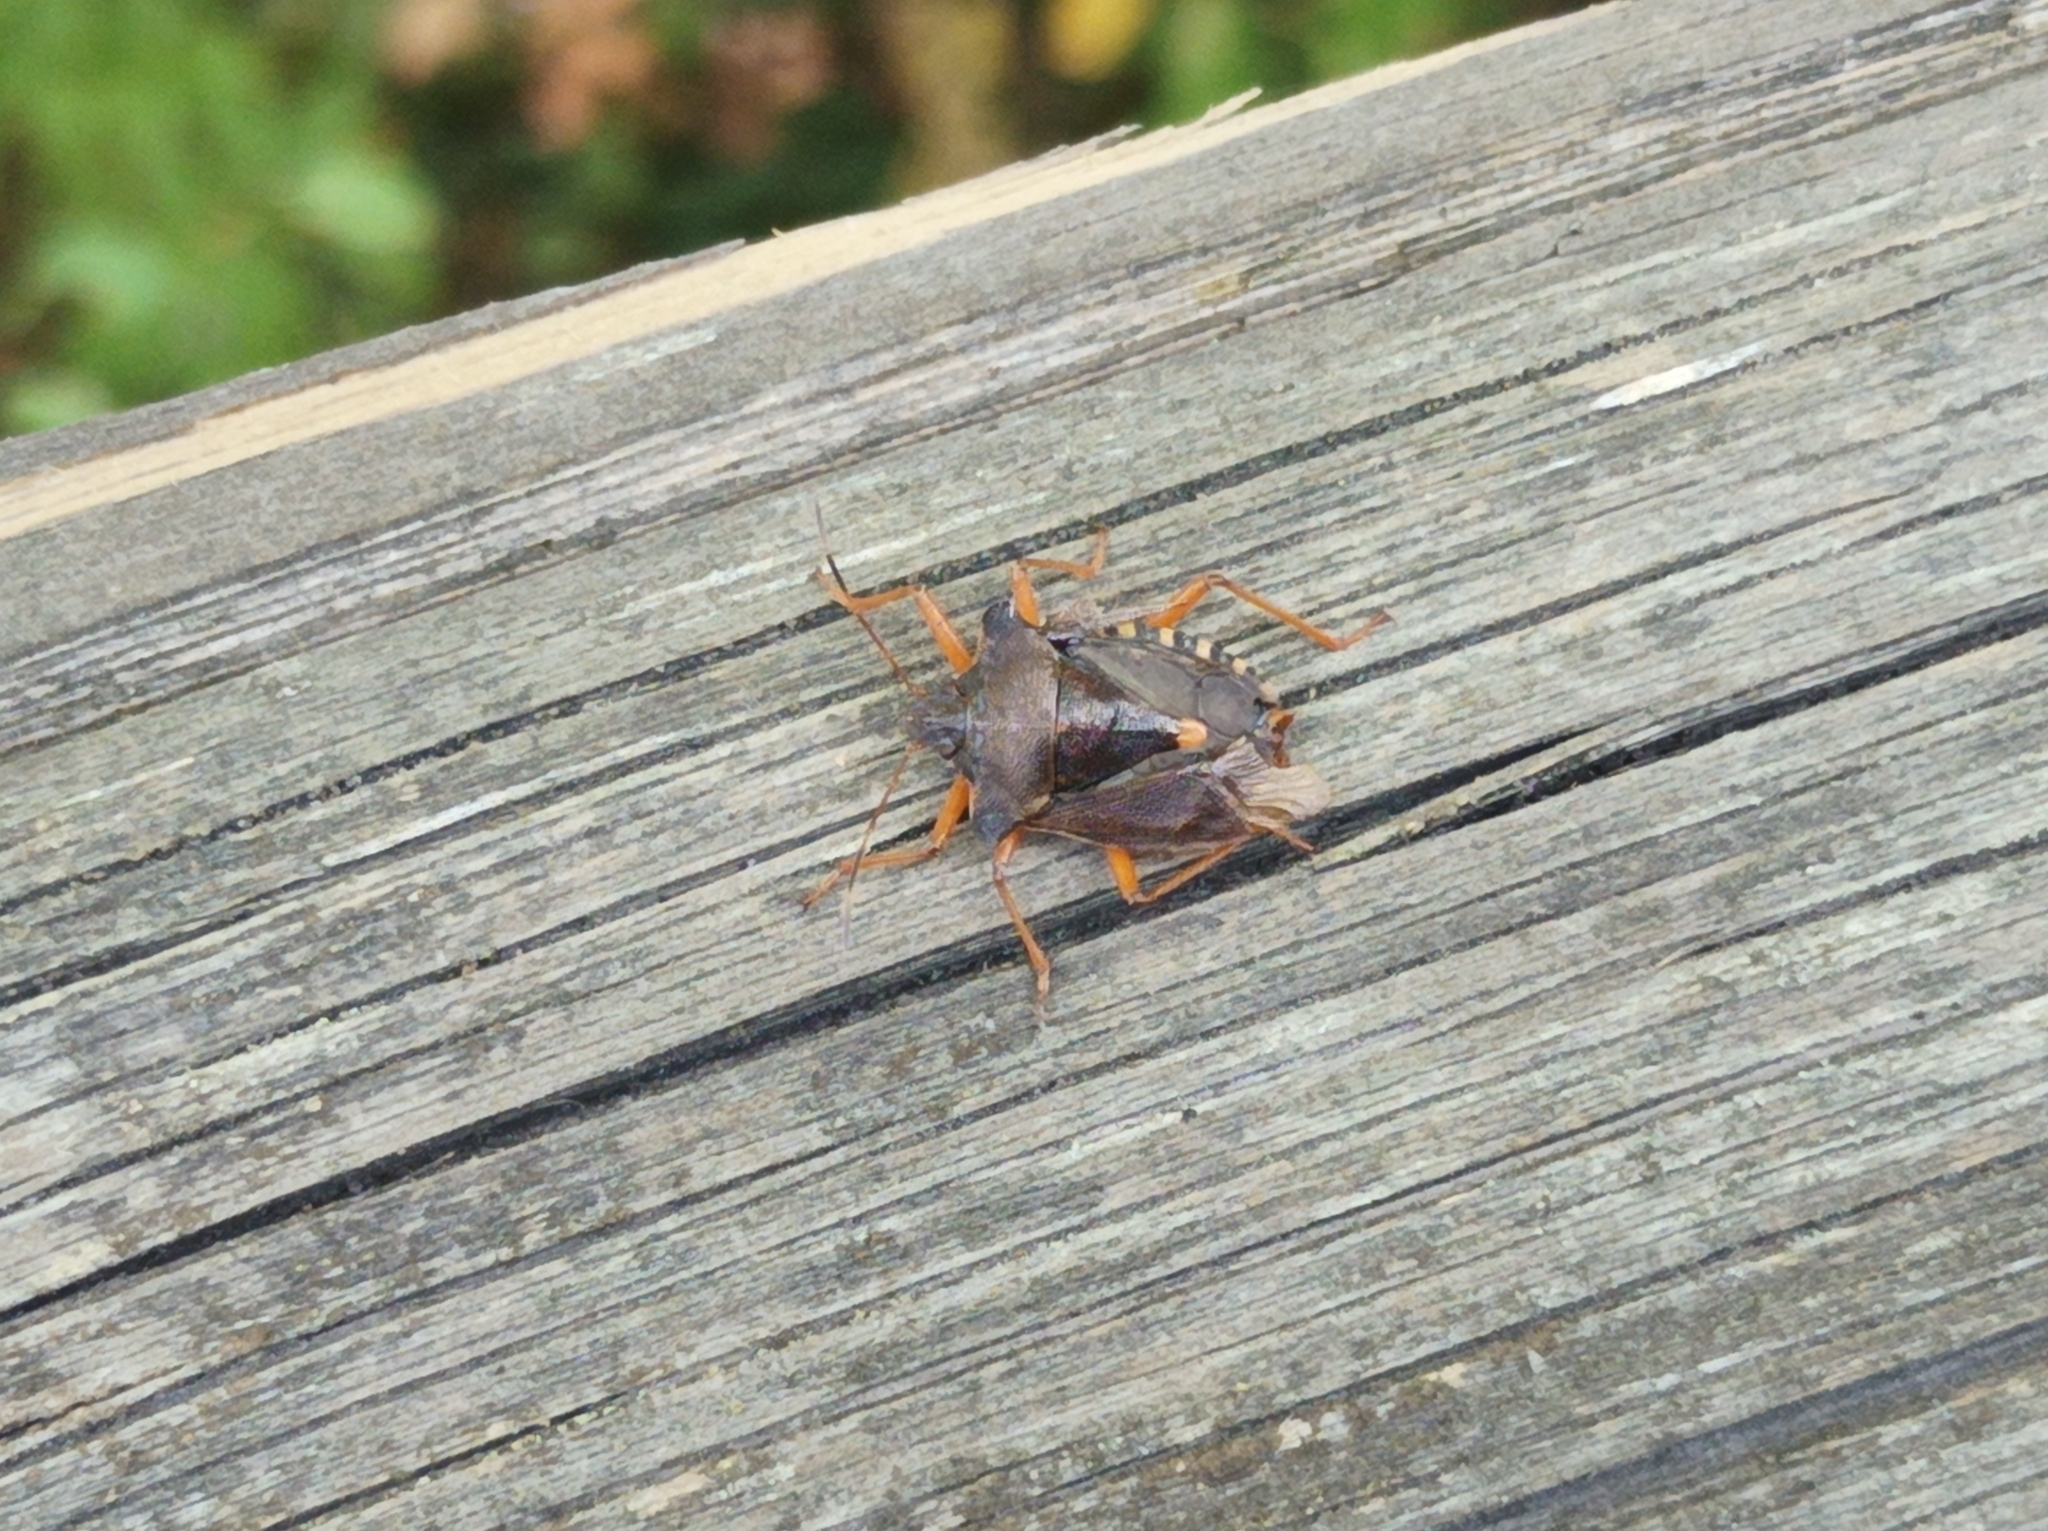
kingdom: Animalia
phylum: Arthropoda
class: Insecta
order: Hemiptera
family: Pentatomidae
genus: Pentatoma
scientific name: Pentatoma rufipes
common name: Forest bug
